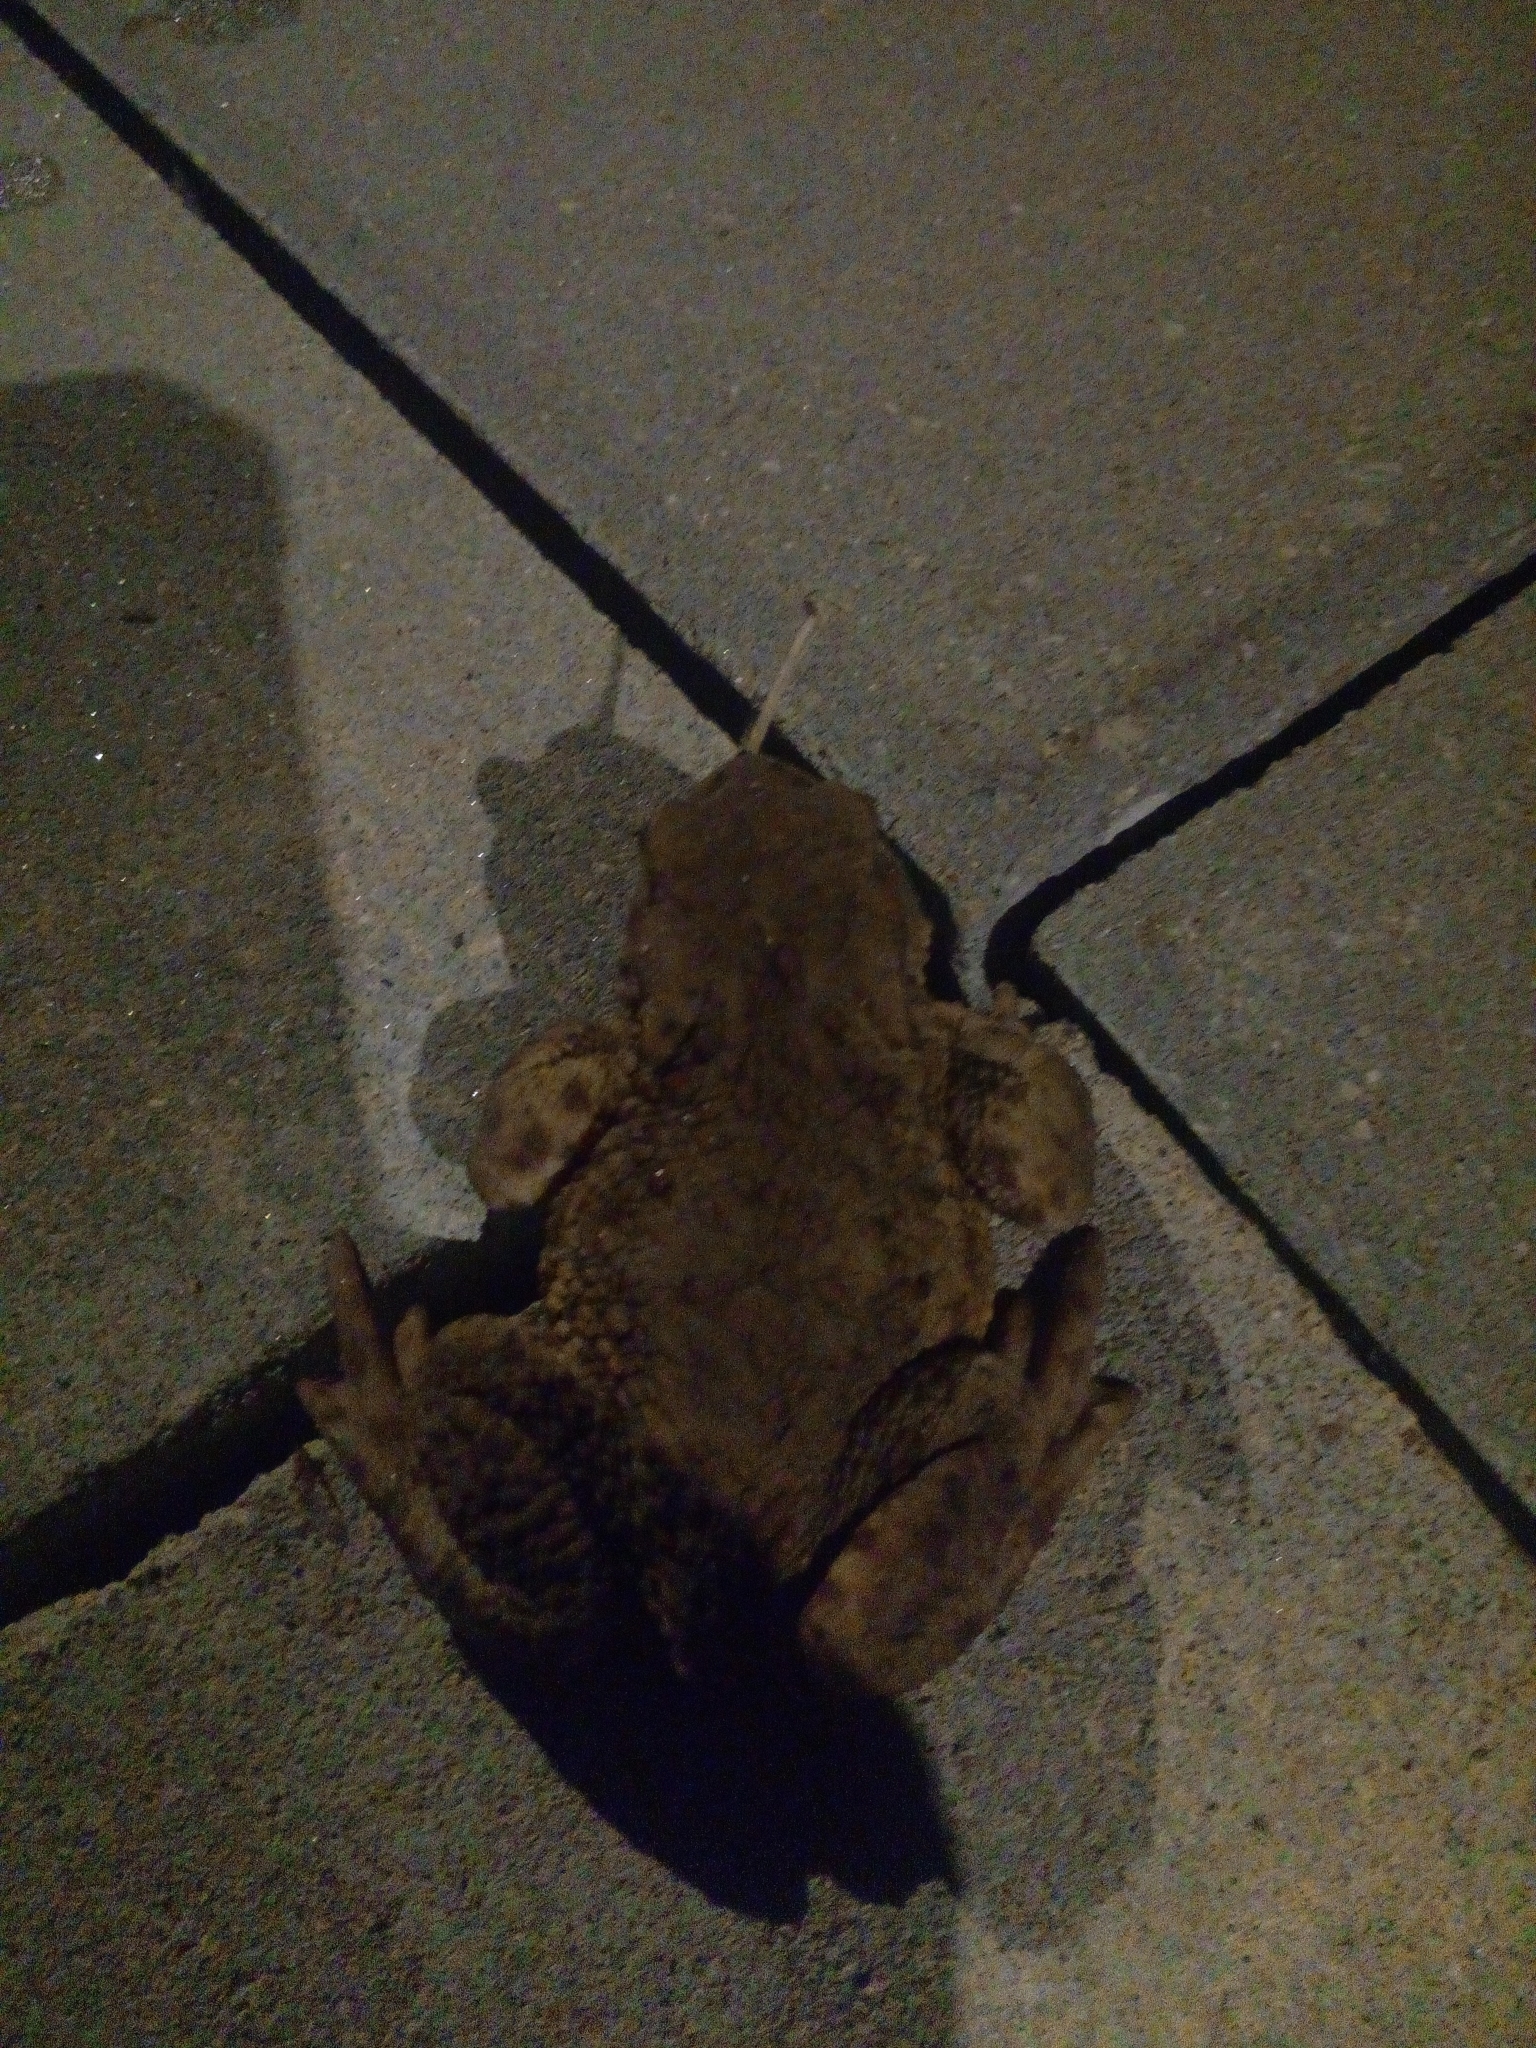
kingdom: Animalia
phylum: Chordata
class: Amphibia
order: Anura
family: Bufonidae
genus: Bufo
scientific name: Bufo bufo
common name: Common toad
